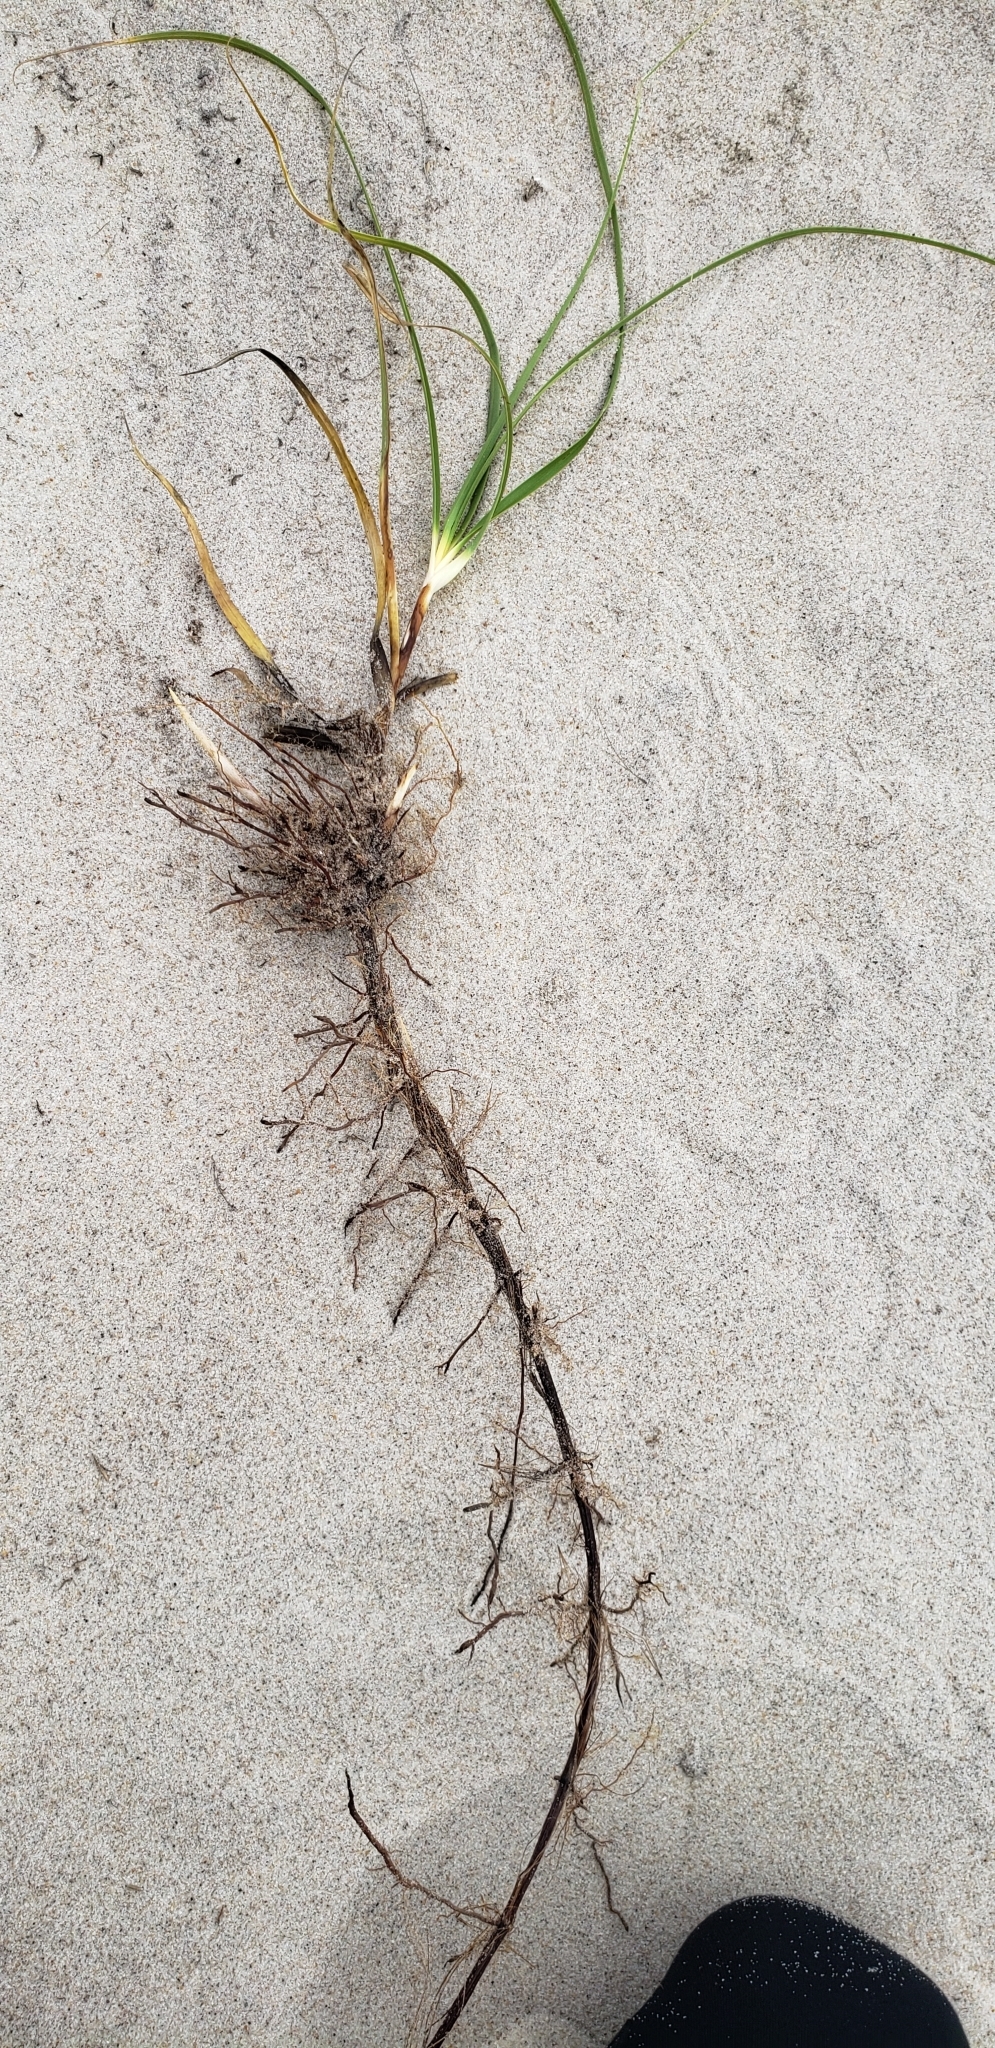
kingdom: Plantae
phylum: Tracheophyta
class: Liliopsida
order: Poales
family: Cyperaceae
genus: Carex
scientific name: Carex kobomugi
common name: Japanese sedge
